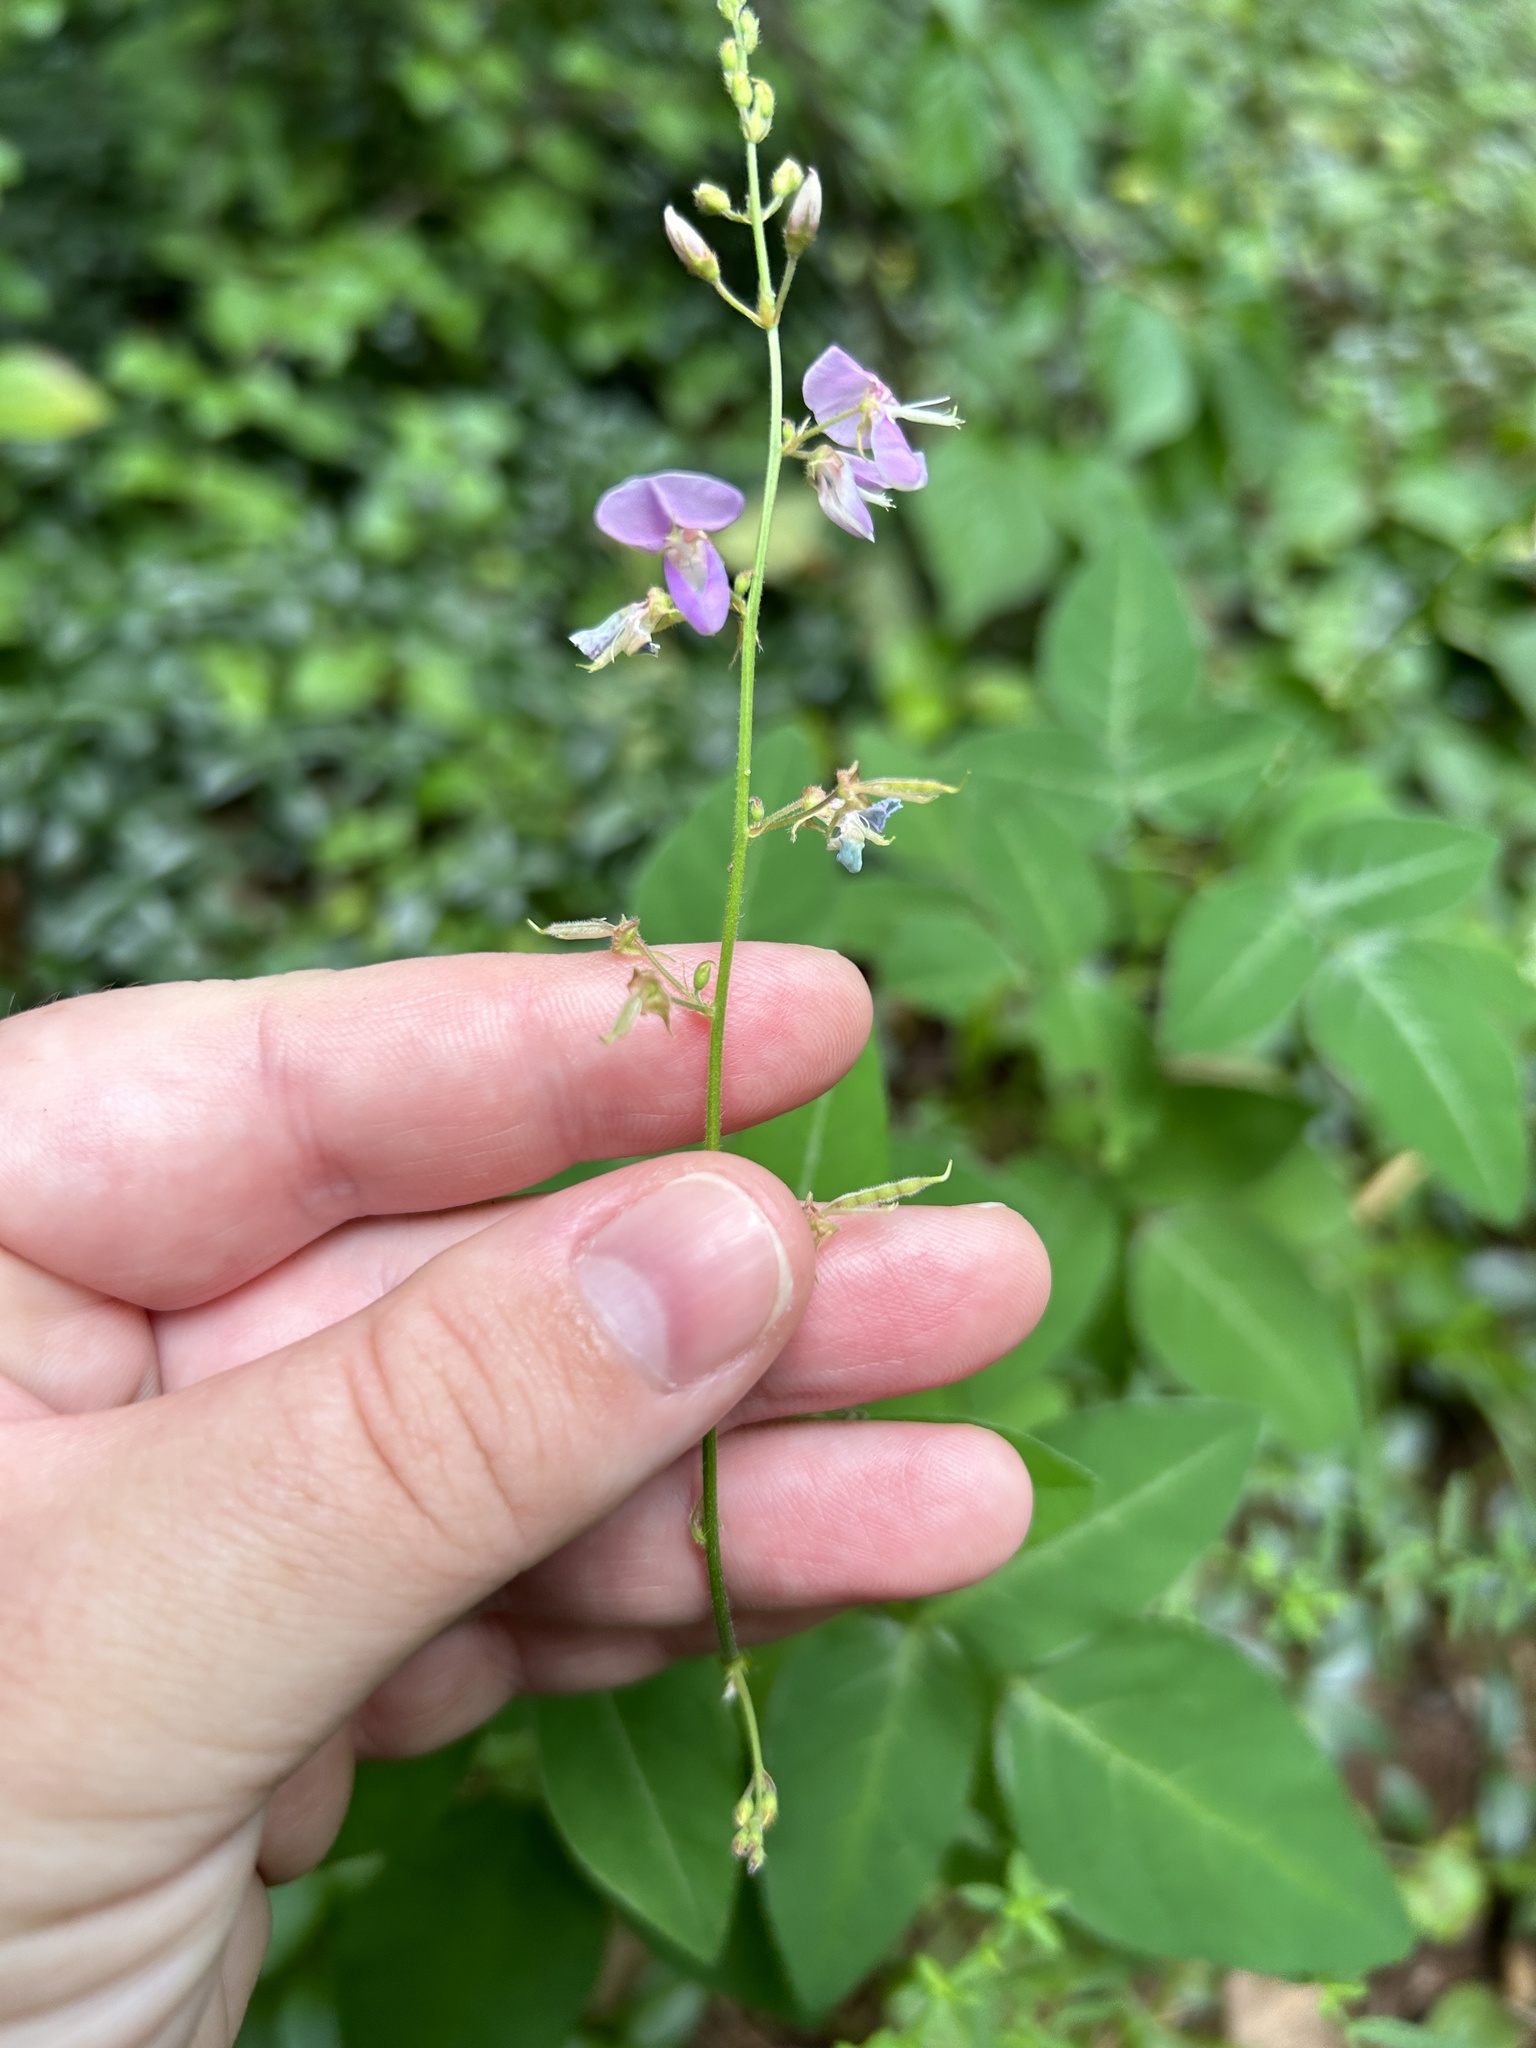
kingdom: Plantae
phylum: Tracheophyta
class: Magnoliopsida
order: Fabales
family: Fabaceae
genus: Desmodium
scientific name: Desmodium perplexum
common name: Perplexed tick trefoil
